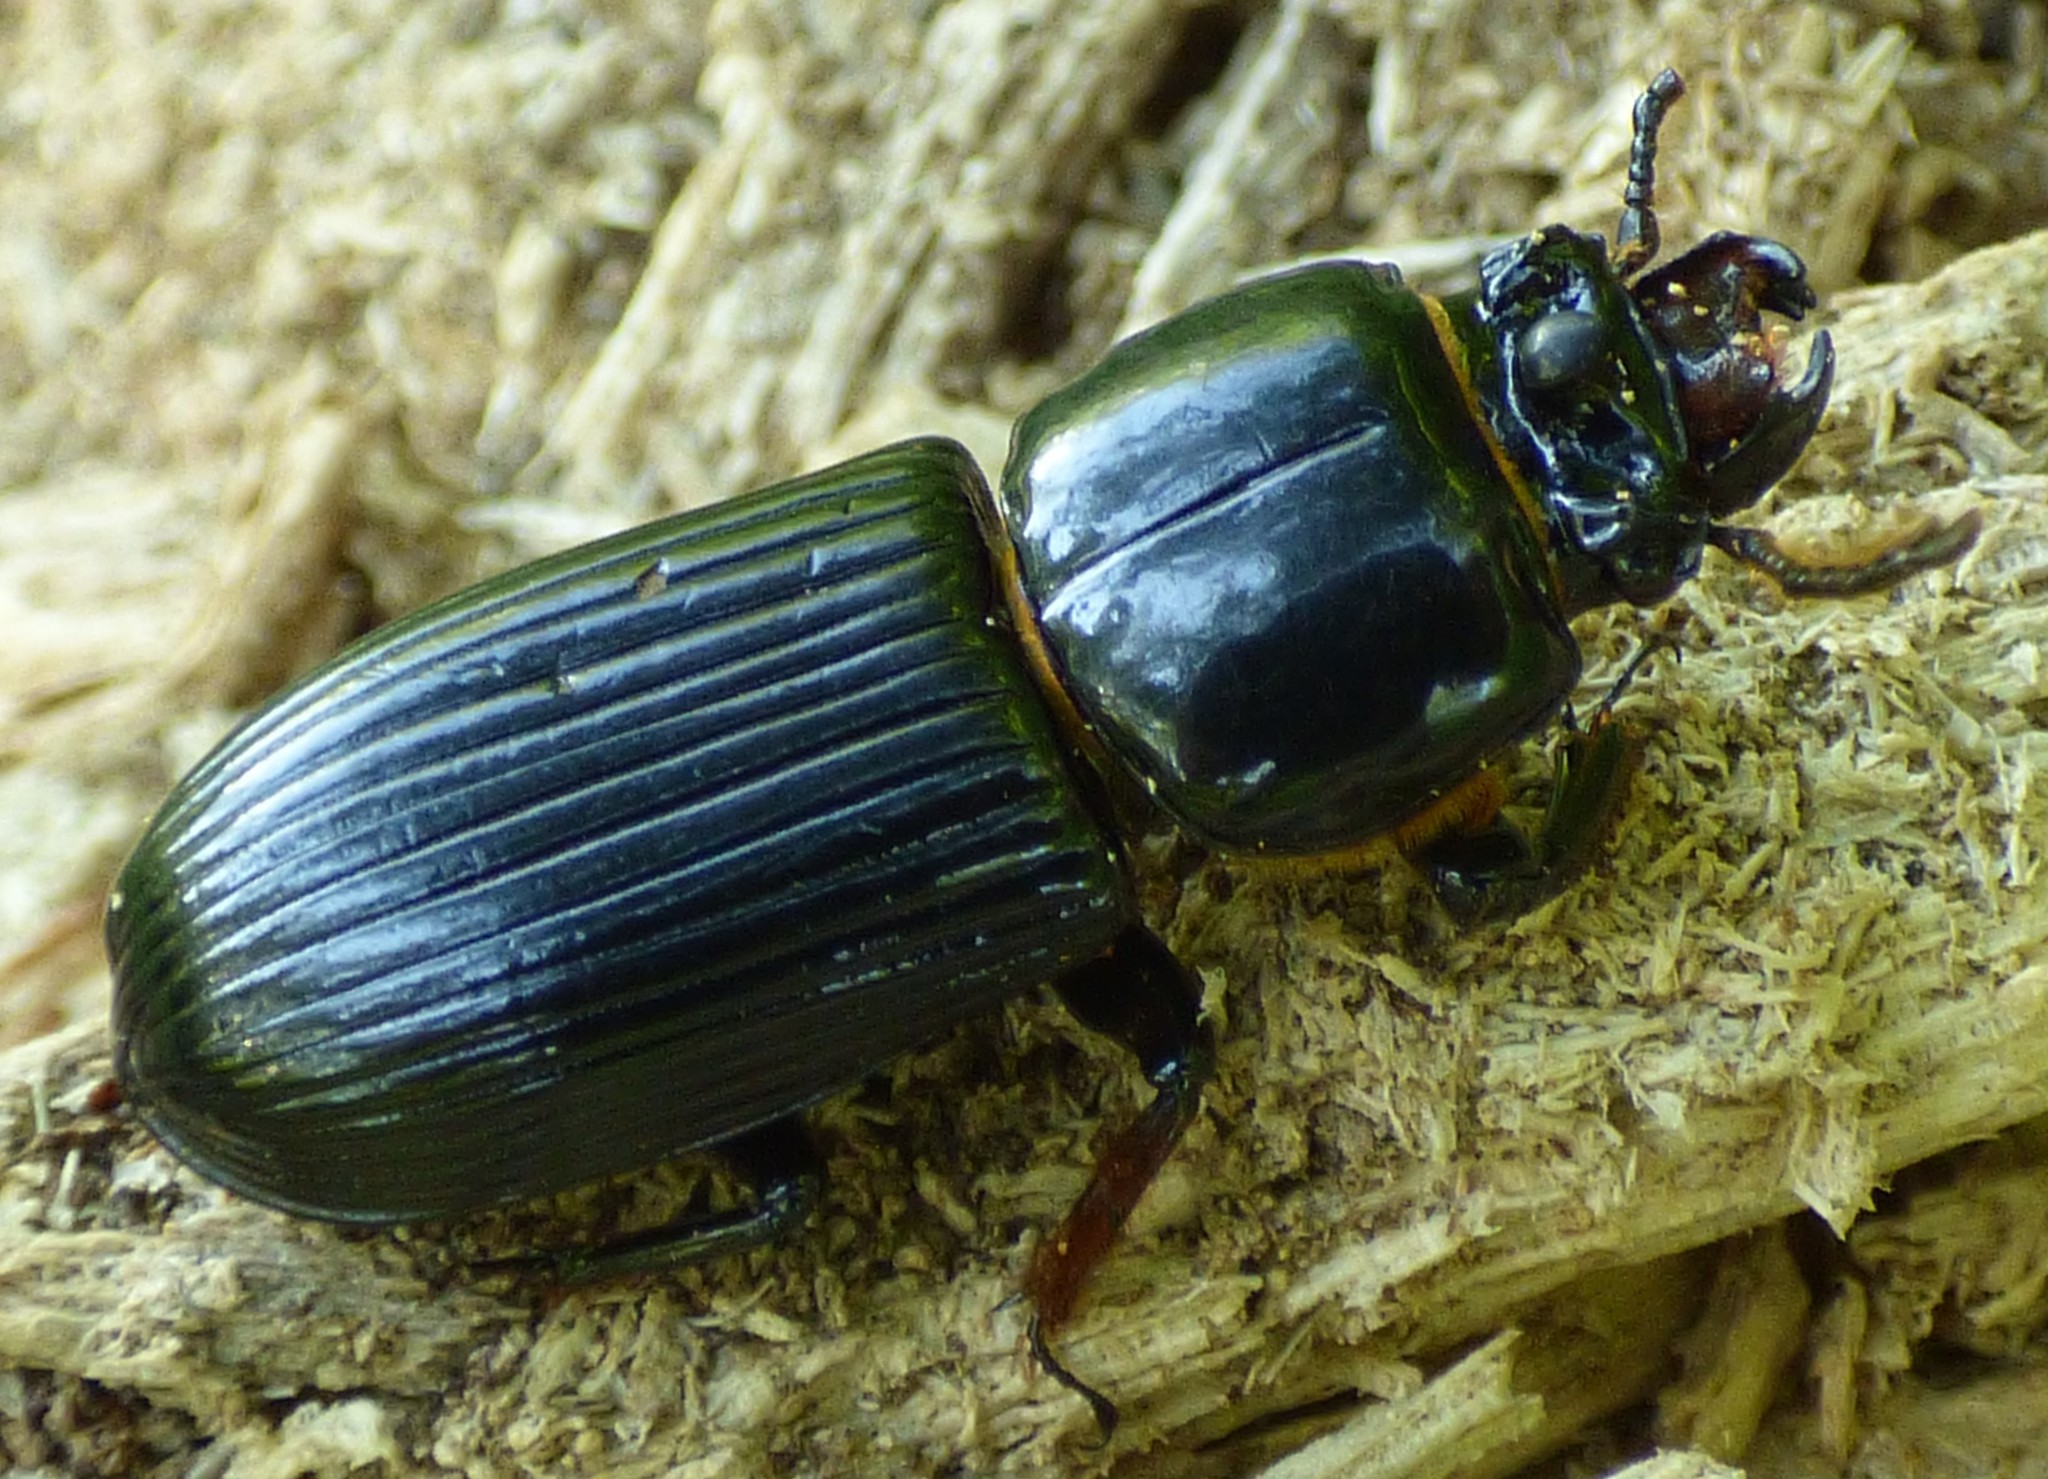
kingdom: Animalia
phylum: Arthropoda
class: Insecta
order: Coleoptera
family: Passalidae
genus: Odontotaenius
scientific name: Odontotaenius disjunctus
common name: Patent leather beetle
